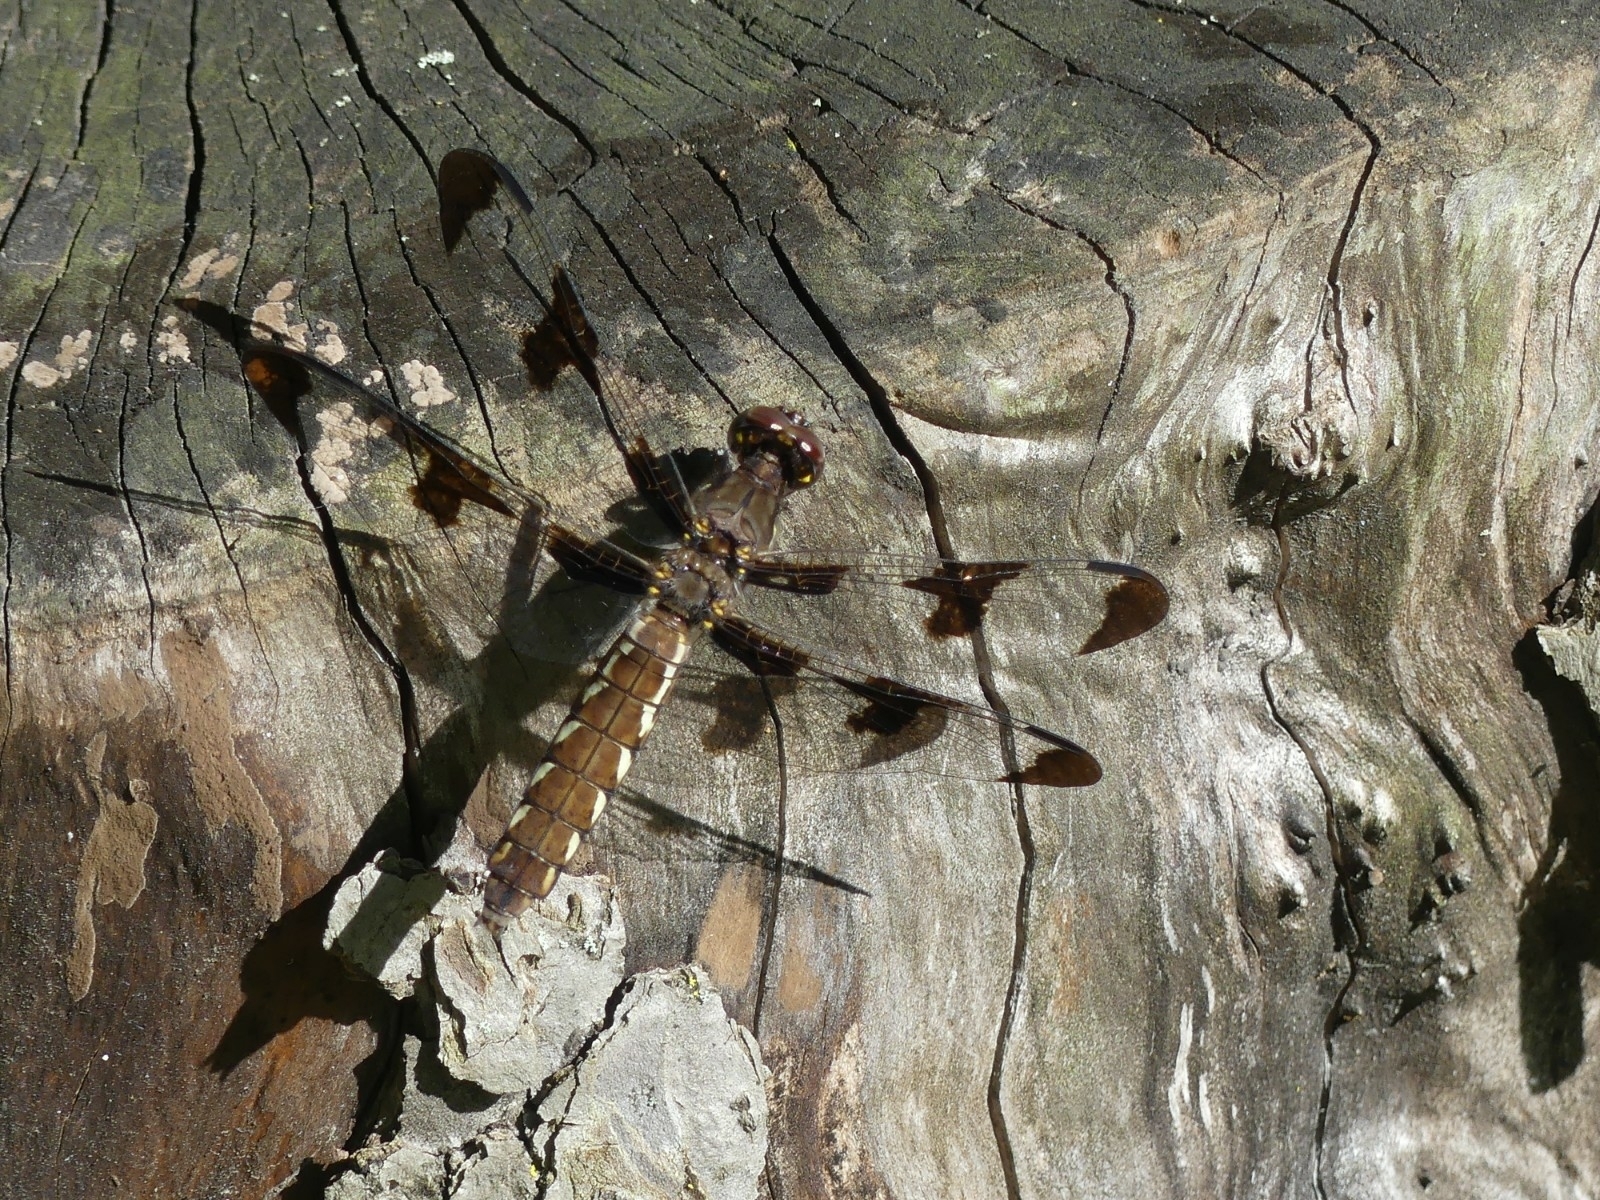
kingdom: Animalia
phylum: Arthropoda
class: Insecta
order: Odonata
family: Libellulidae
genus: Plathemis
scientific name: Plathemis lydia
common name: Common whitetail
